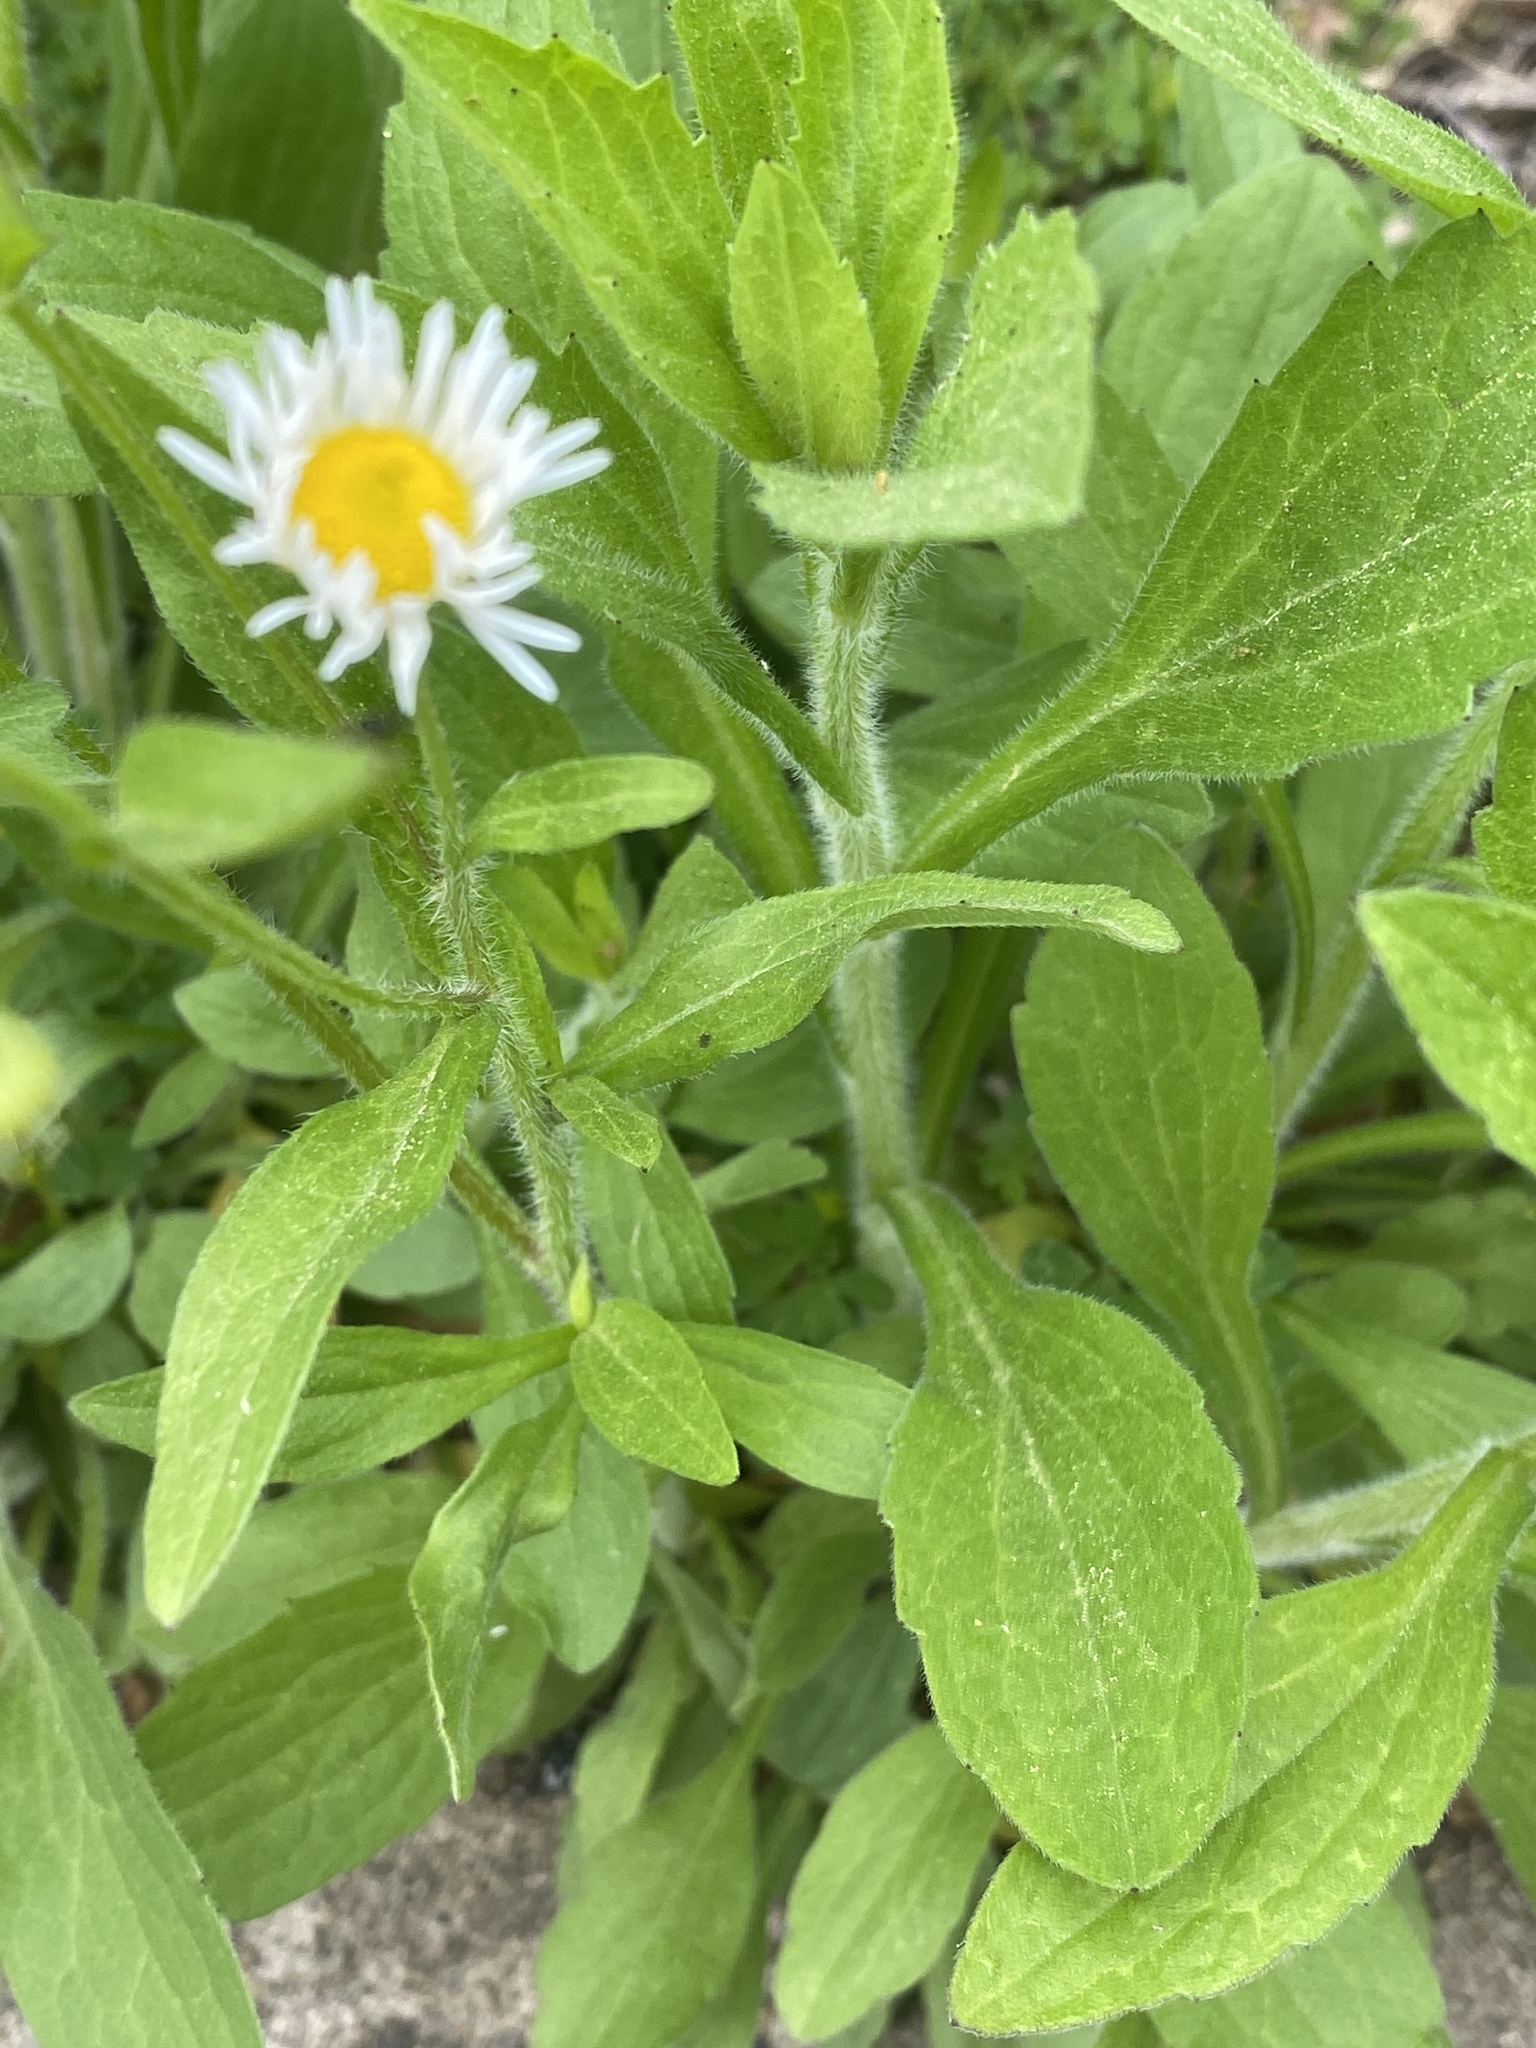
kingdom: Plantae
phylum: Tracheophyta
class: Magnoliopsida
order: Asterales
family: Asteraceae
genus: Erigeron
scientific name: Erigeron annuus
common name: Tall fleabane
